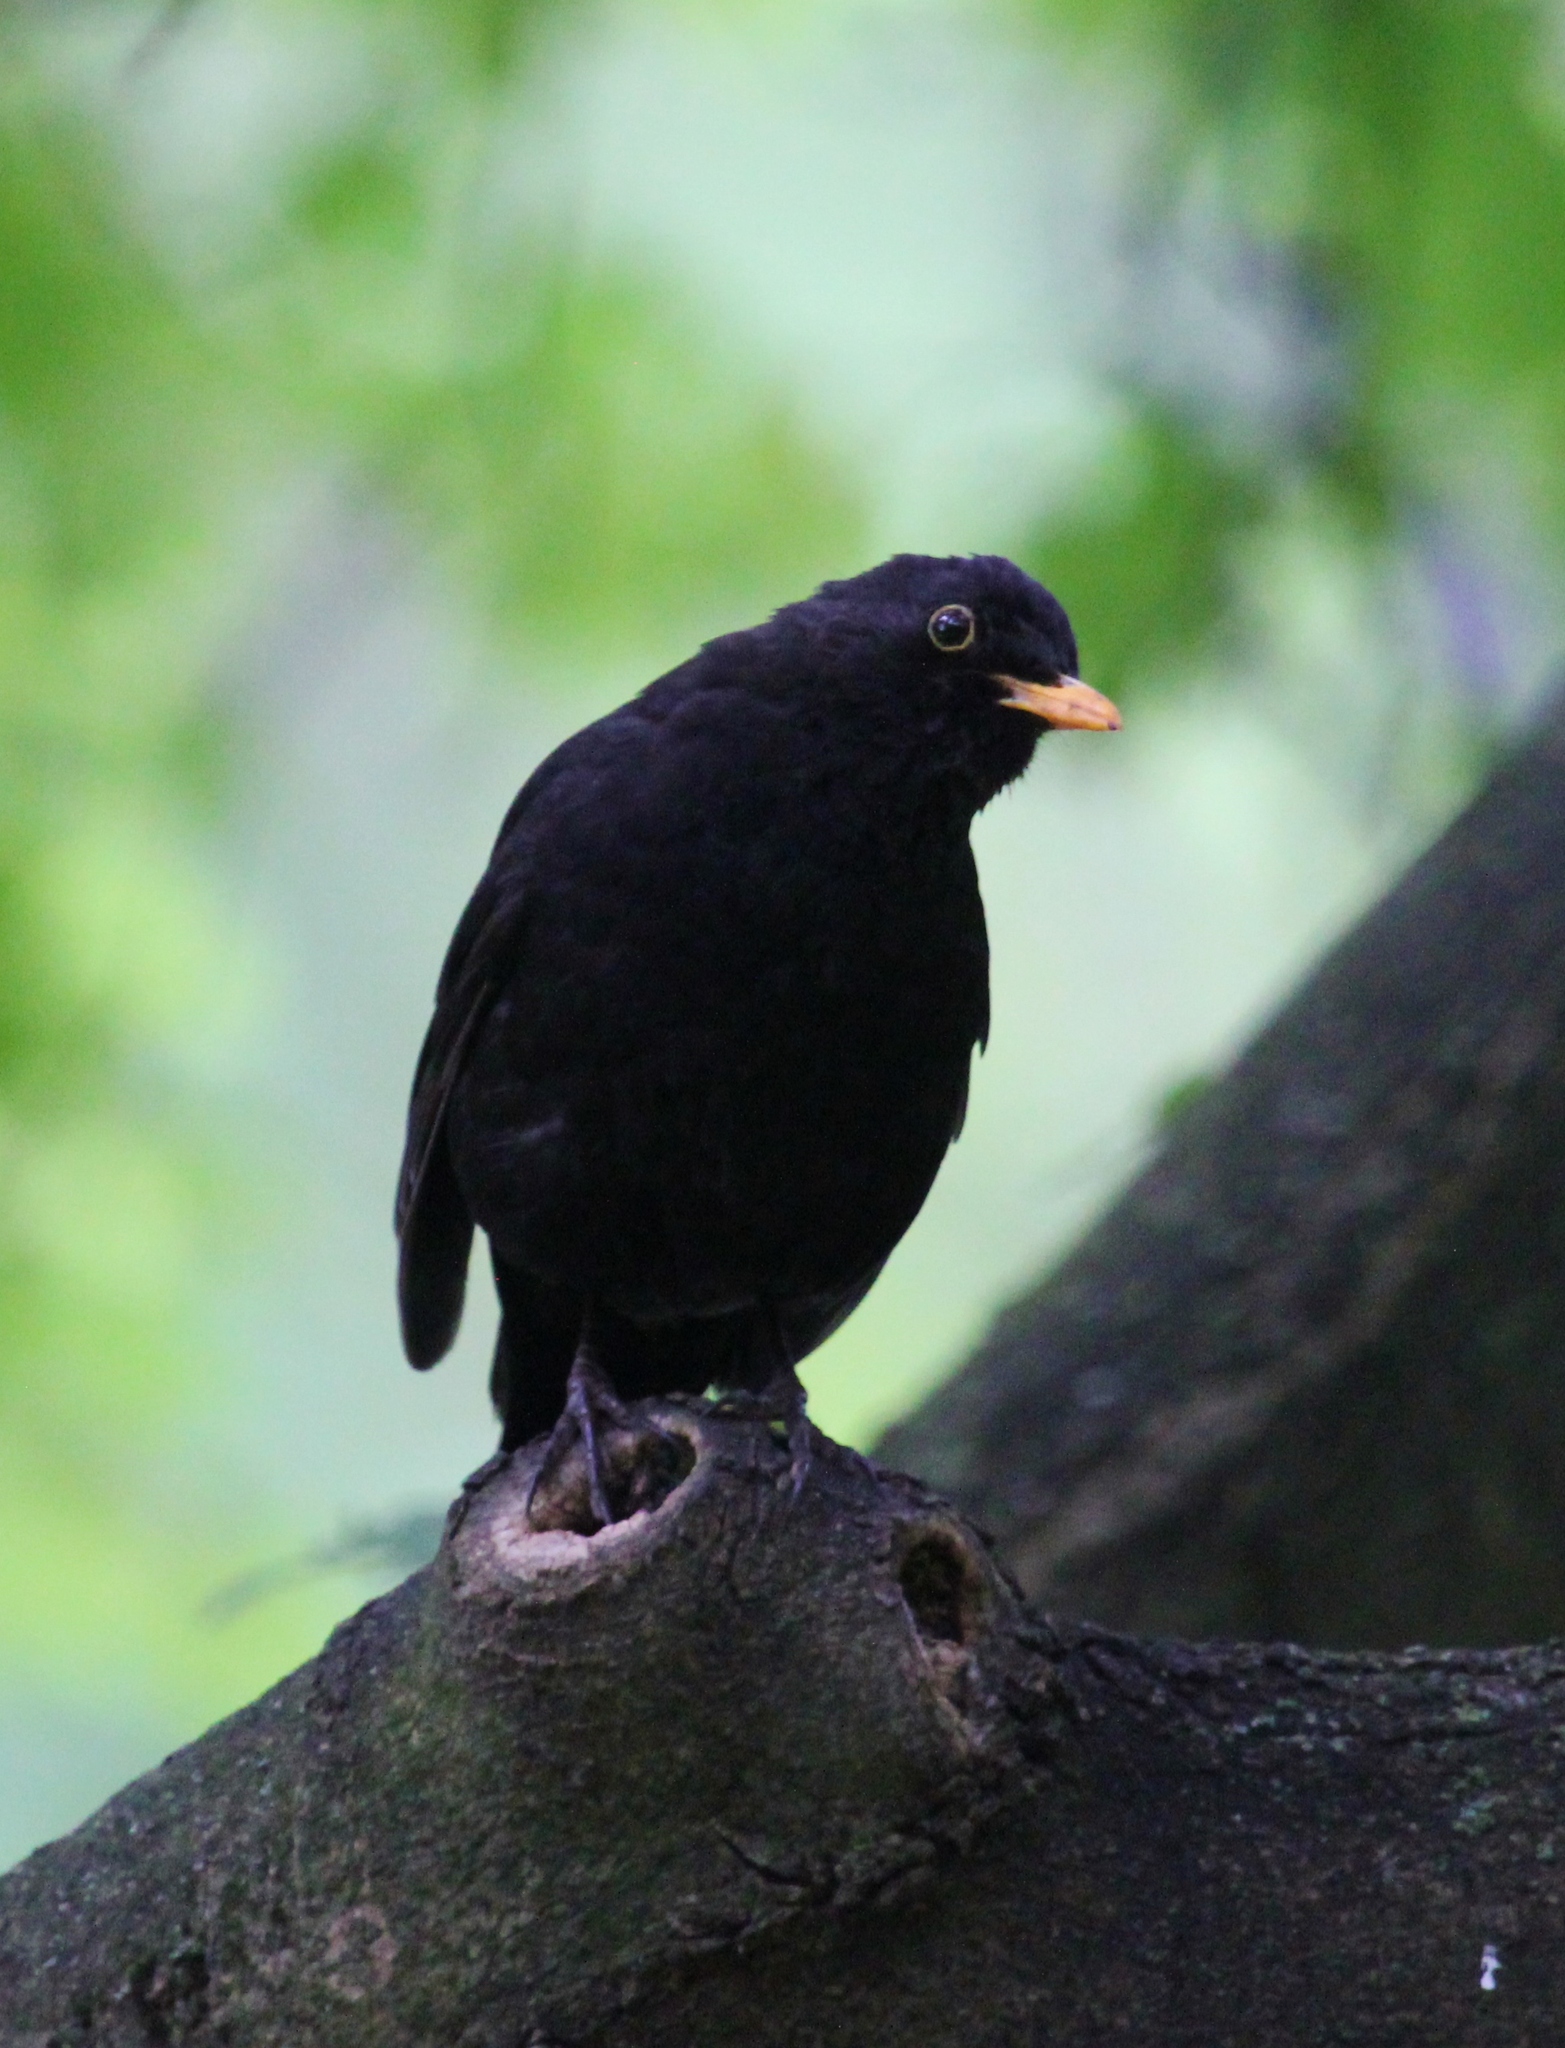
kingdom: Animalia
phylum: Chordata
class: Aves
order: Passeriformes
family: Turdidae
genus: Turdus
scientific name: Turdus merula
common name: Common blackbird
